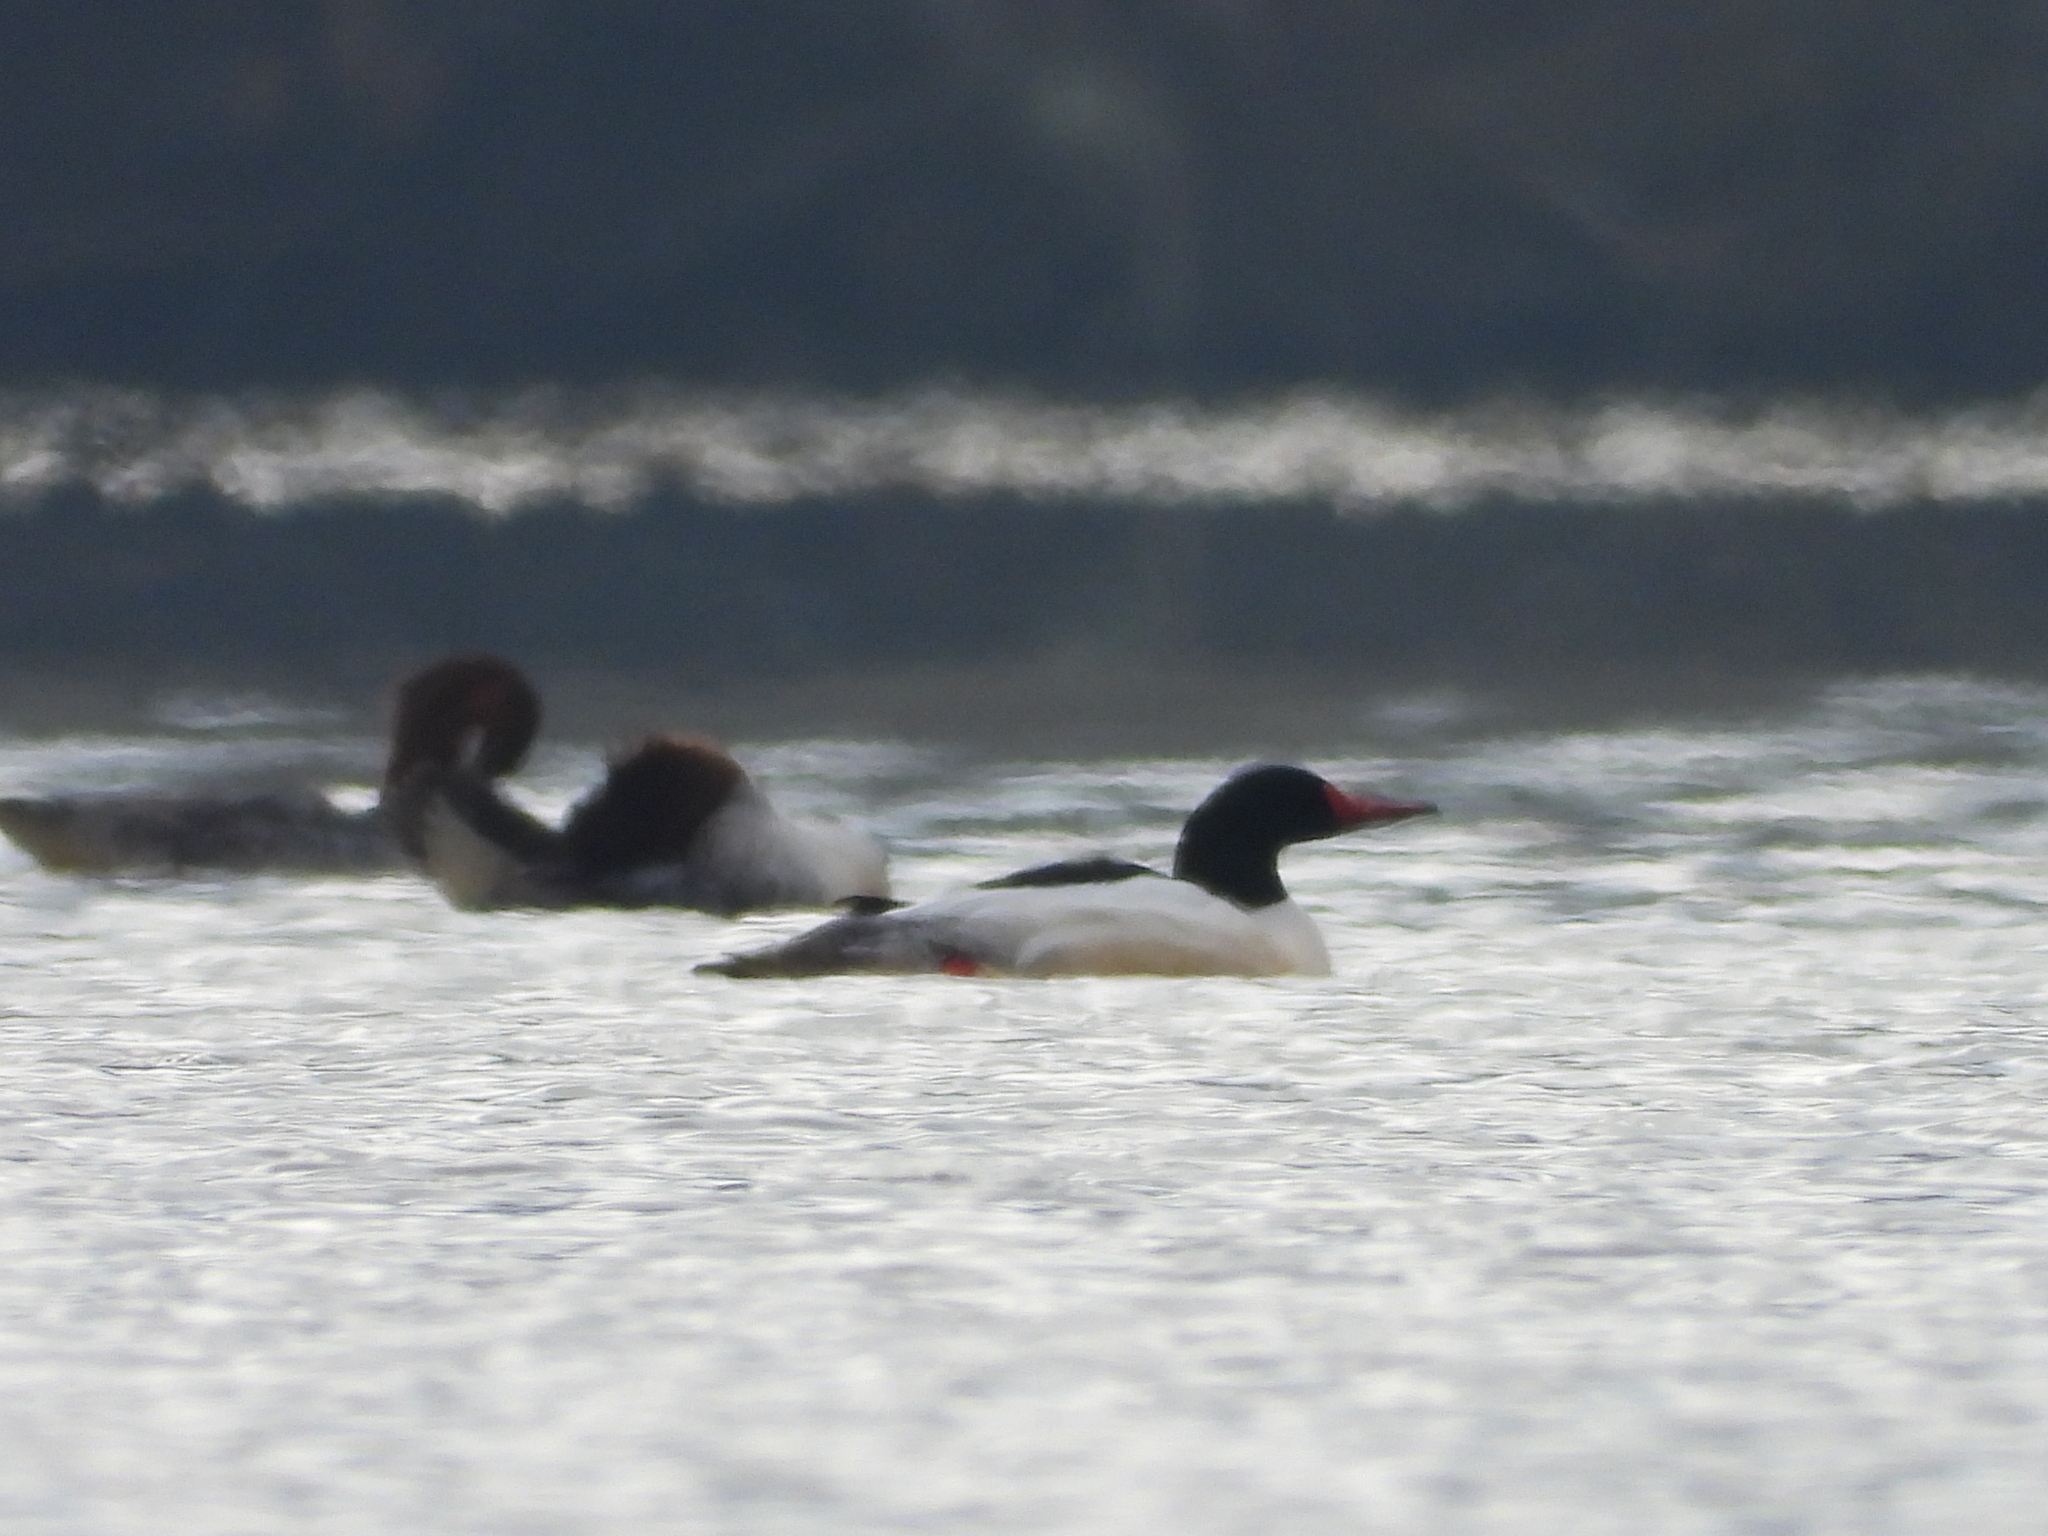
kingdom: Animalia
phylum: Chordata
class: Aves
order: Anseriformes
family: Anatidae
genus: Mergus
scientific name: Mergus merganser
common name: Common merganser
